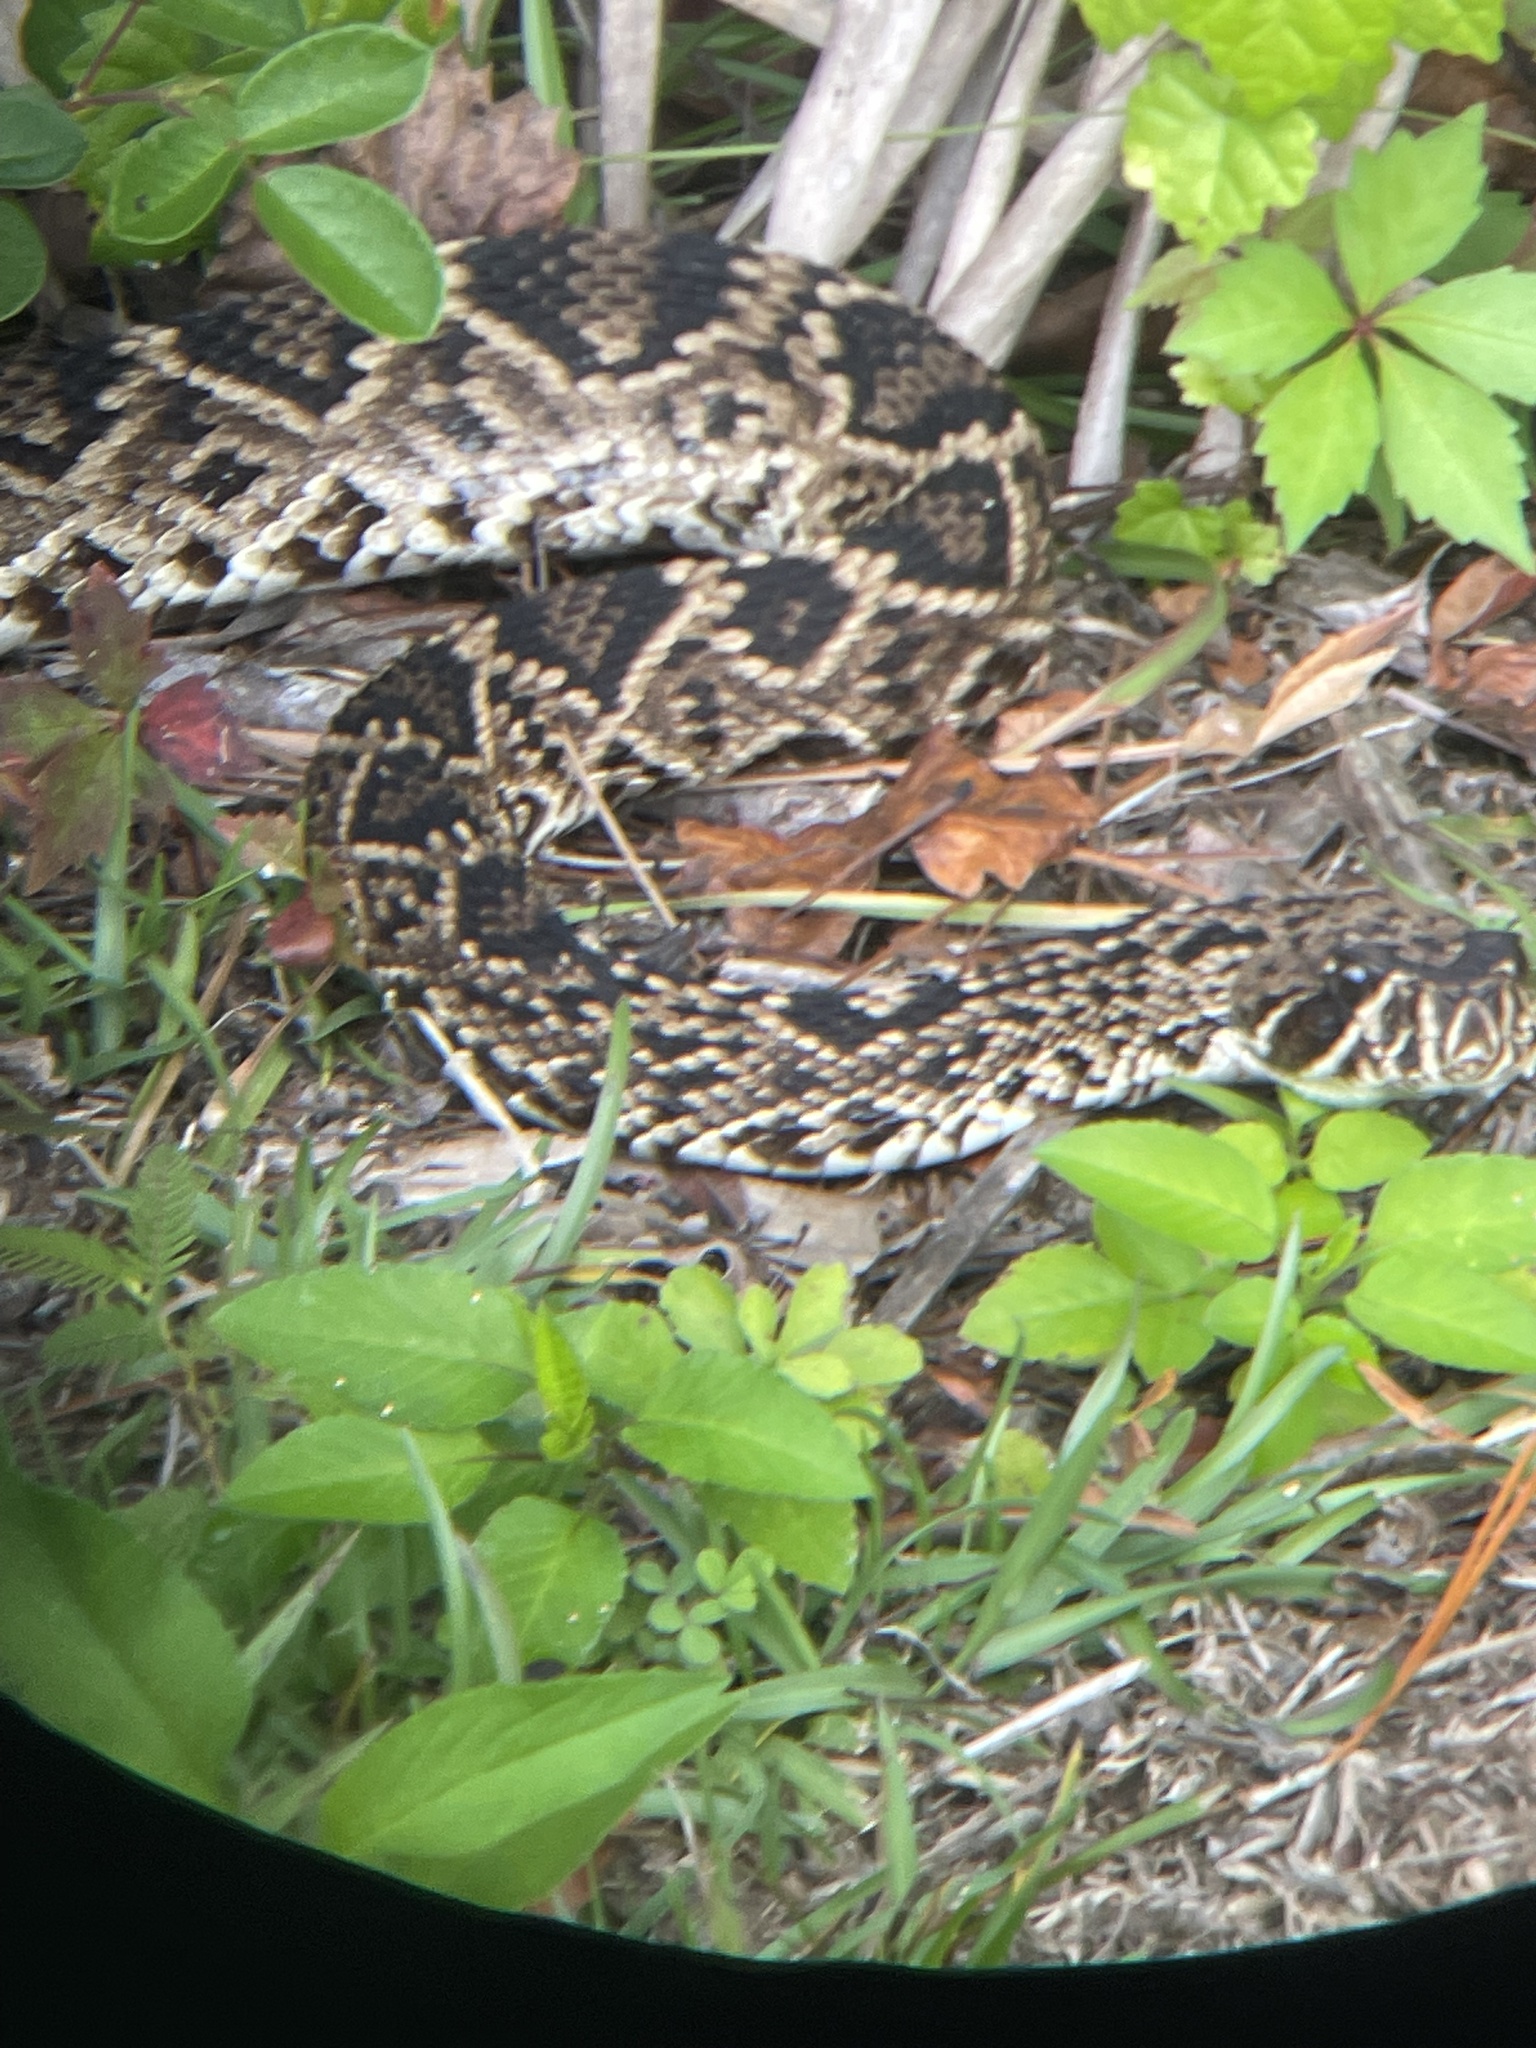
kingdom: Animalia
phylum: Chordata
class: Squamata
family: Viperidae
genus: Crotalus
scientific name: Crotalus adamanteus
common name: Eastern diamondback rattlesnake
